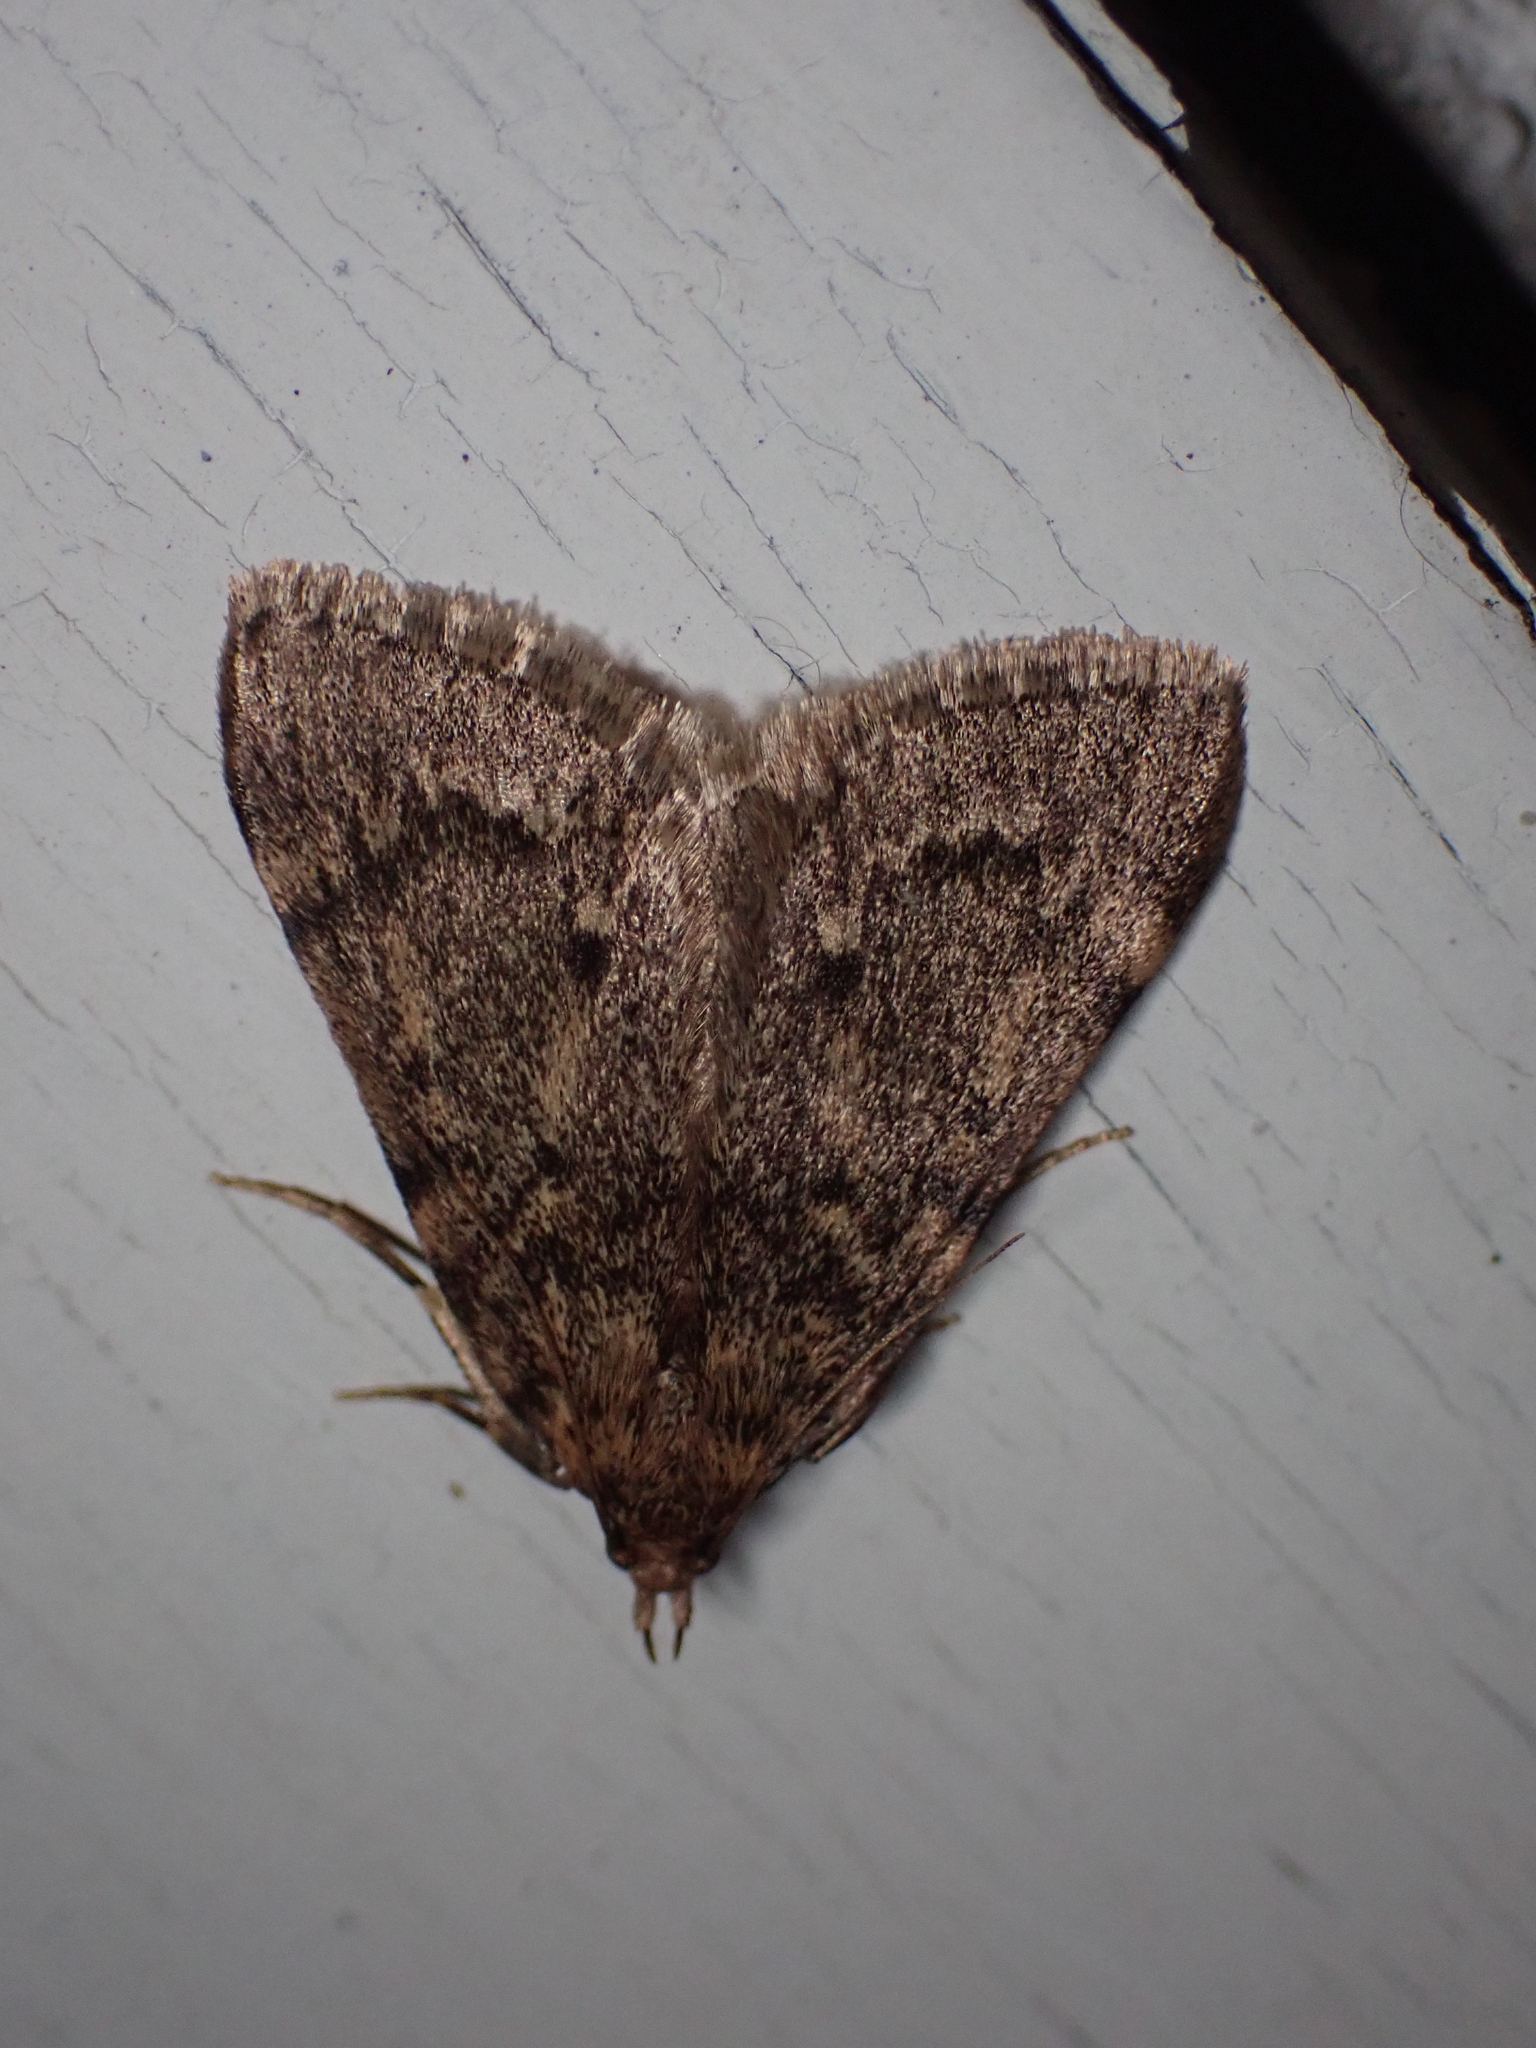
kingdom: Animalia
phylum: Arthropoda
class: Insecta
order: Lepidoptera
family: Pyralidae
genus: Aglossa
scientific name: Aglossa pinguinalis
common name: Large tabby
